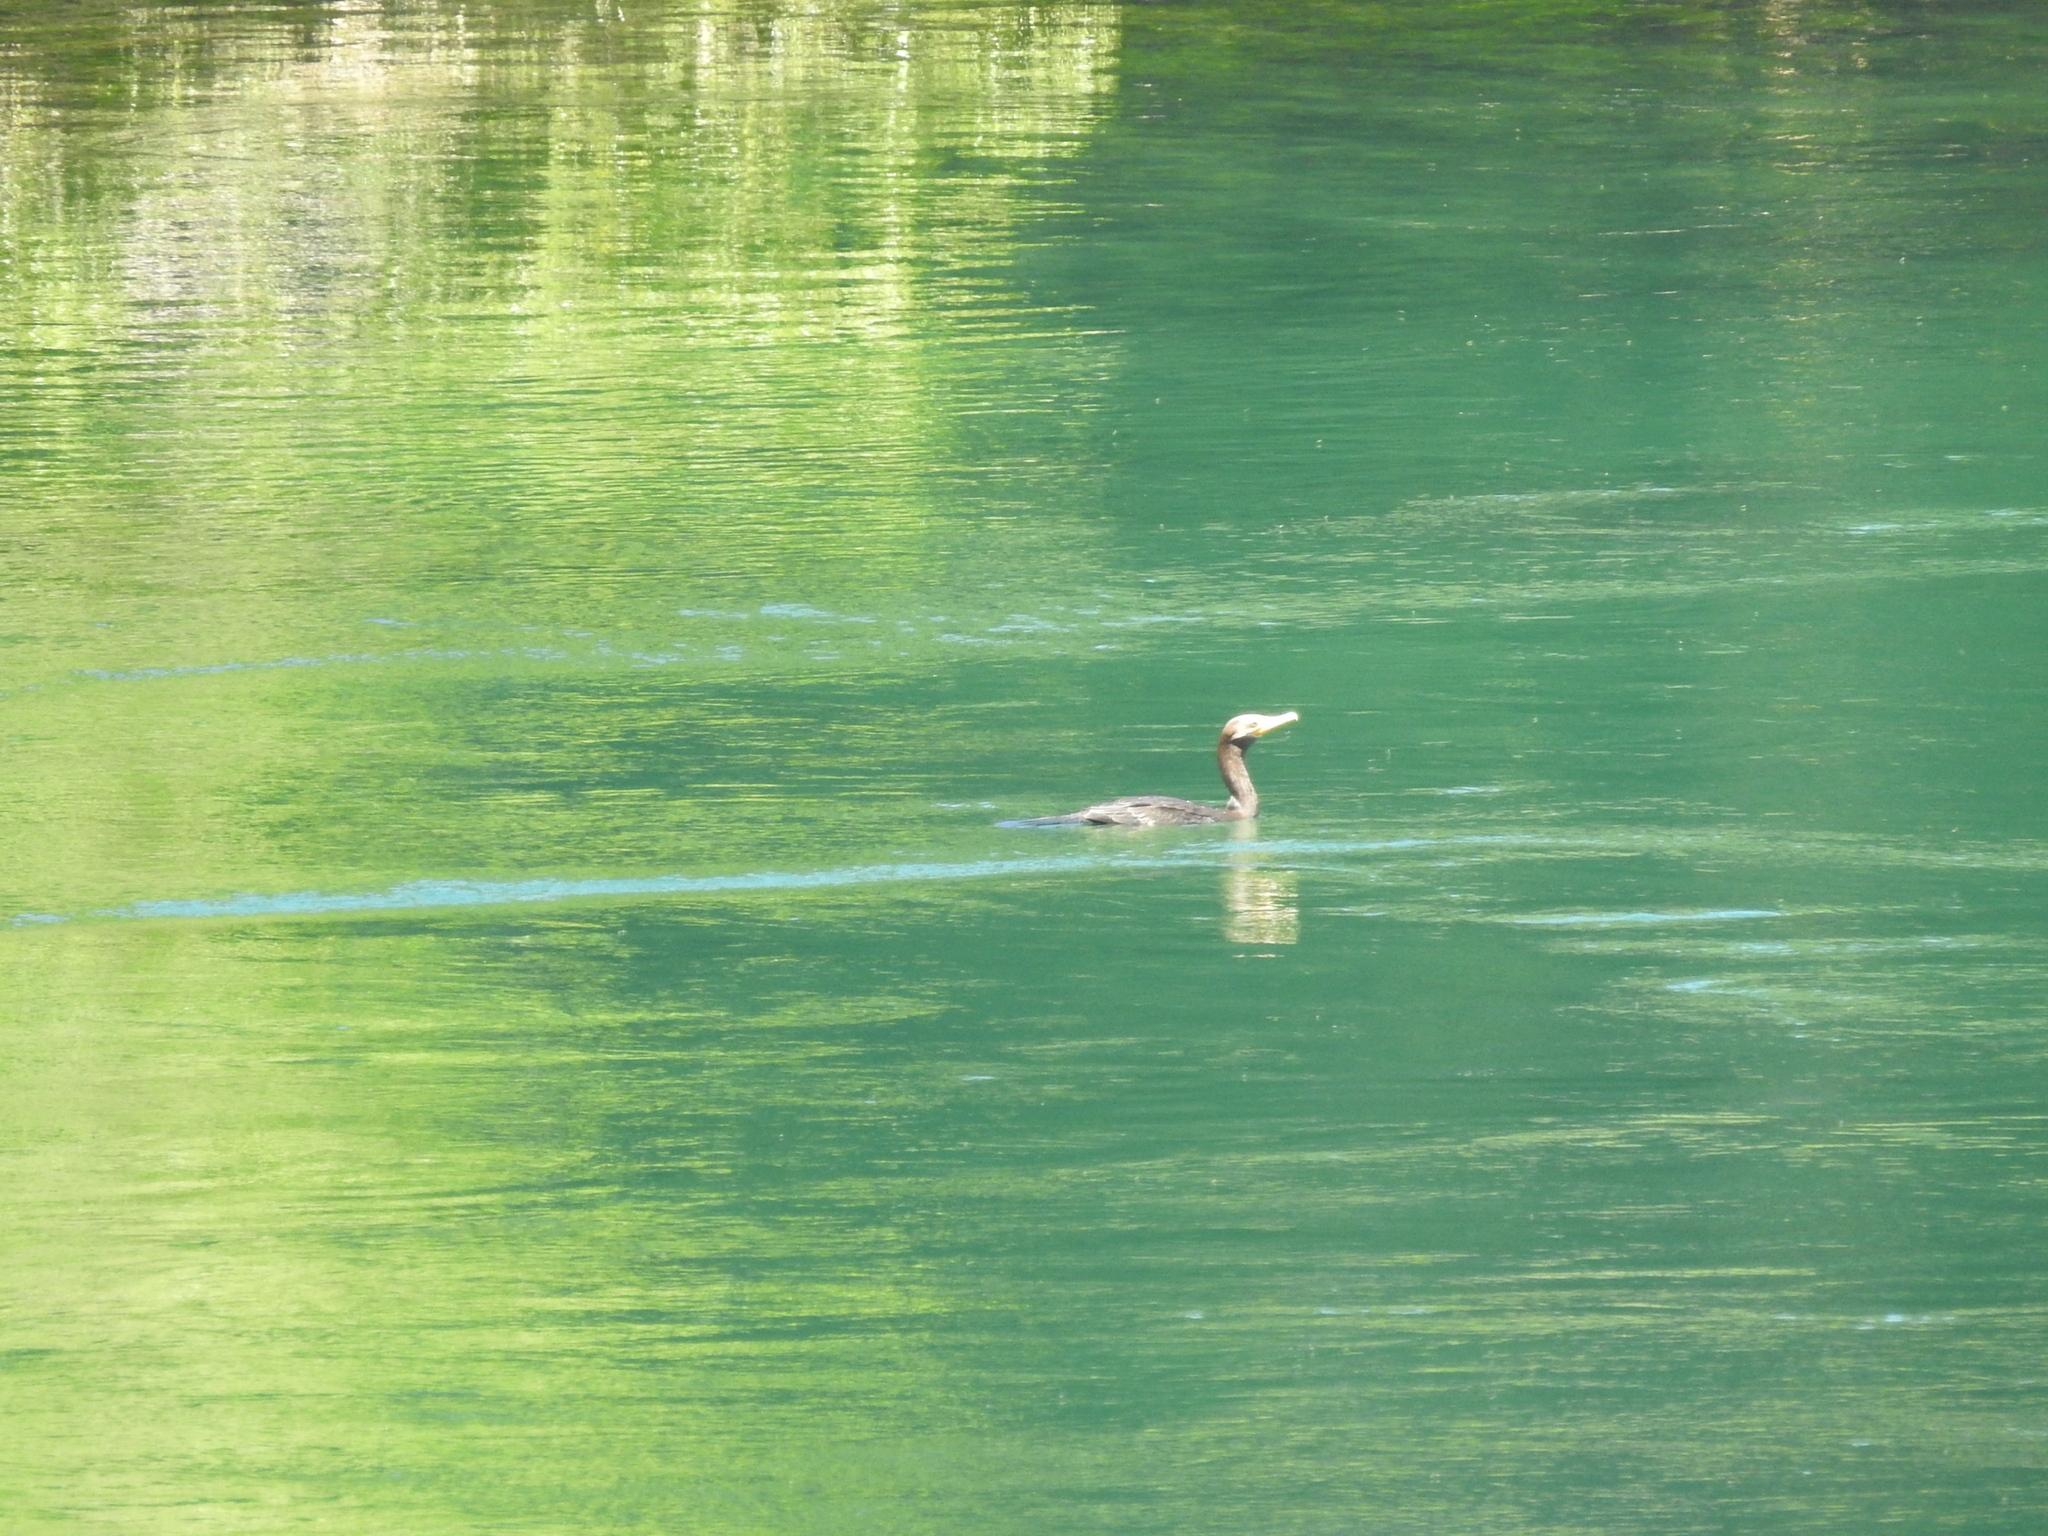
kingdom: Animalia
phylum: Chordata
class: Aves
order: Suliformes
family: Phalacrocoracidae
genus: Phalacrocorax
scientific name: Phalacrocorax brasilianus
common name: Neotropic cormorant
